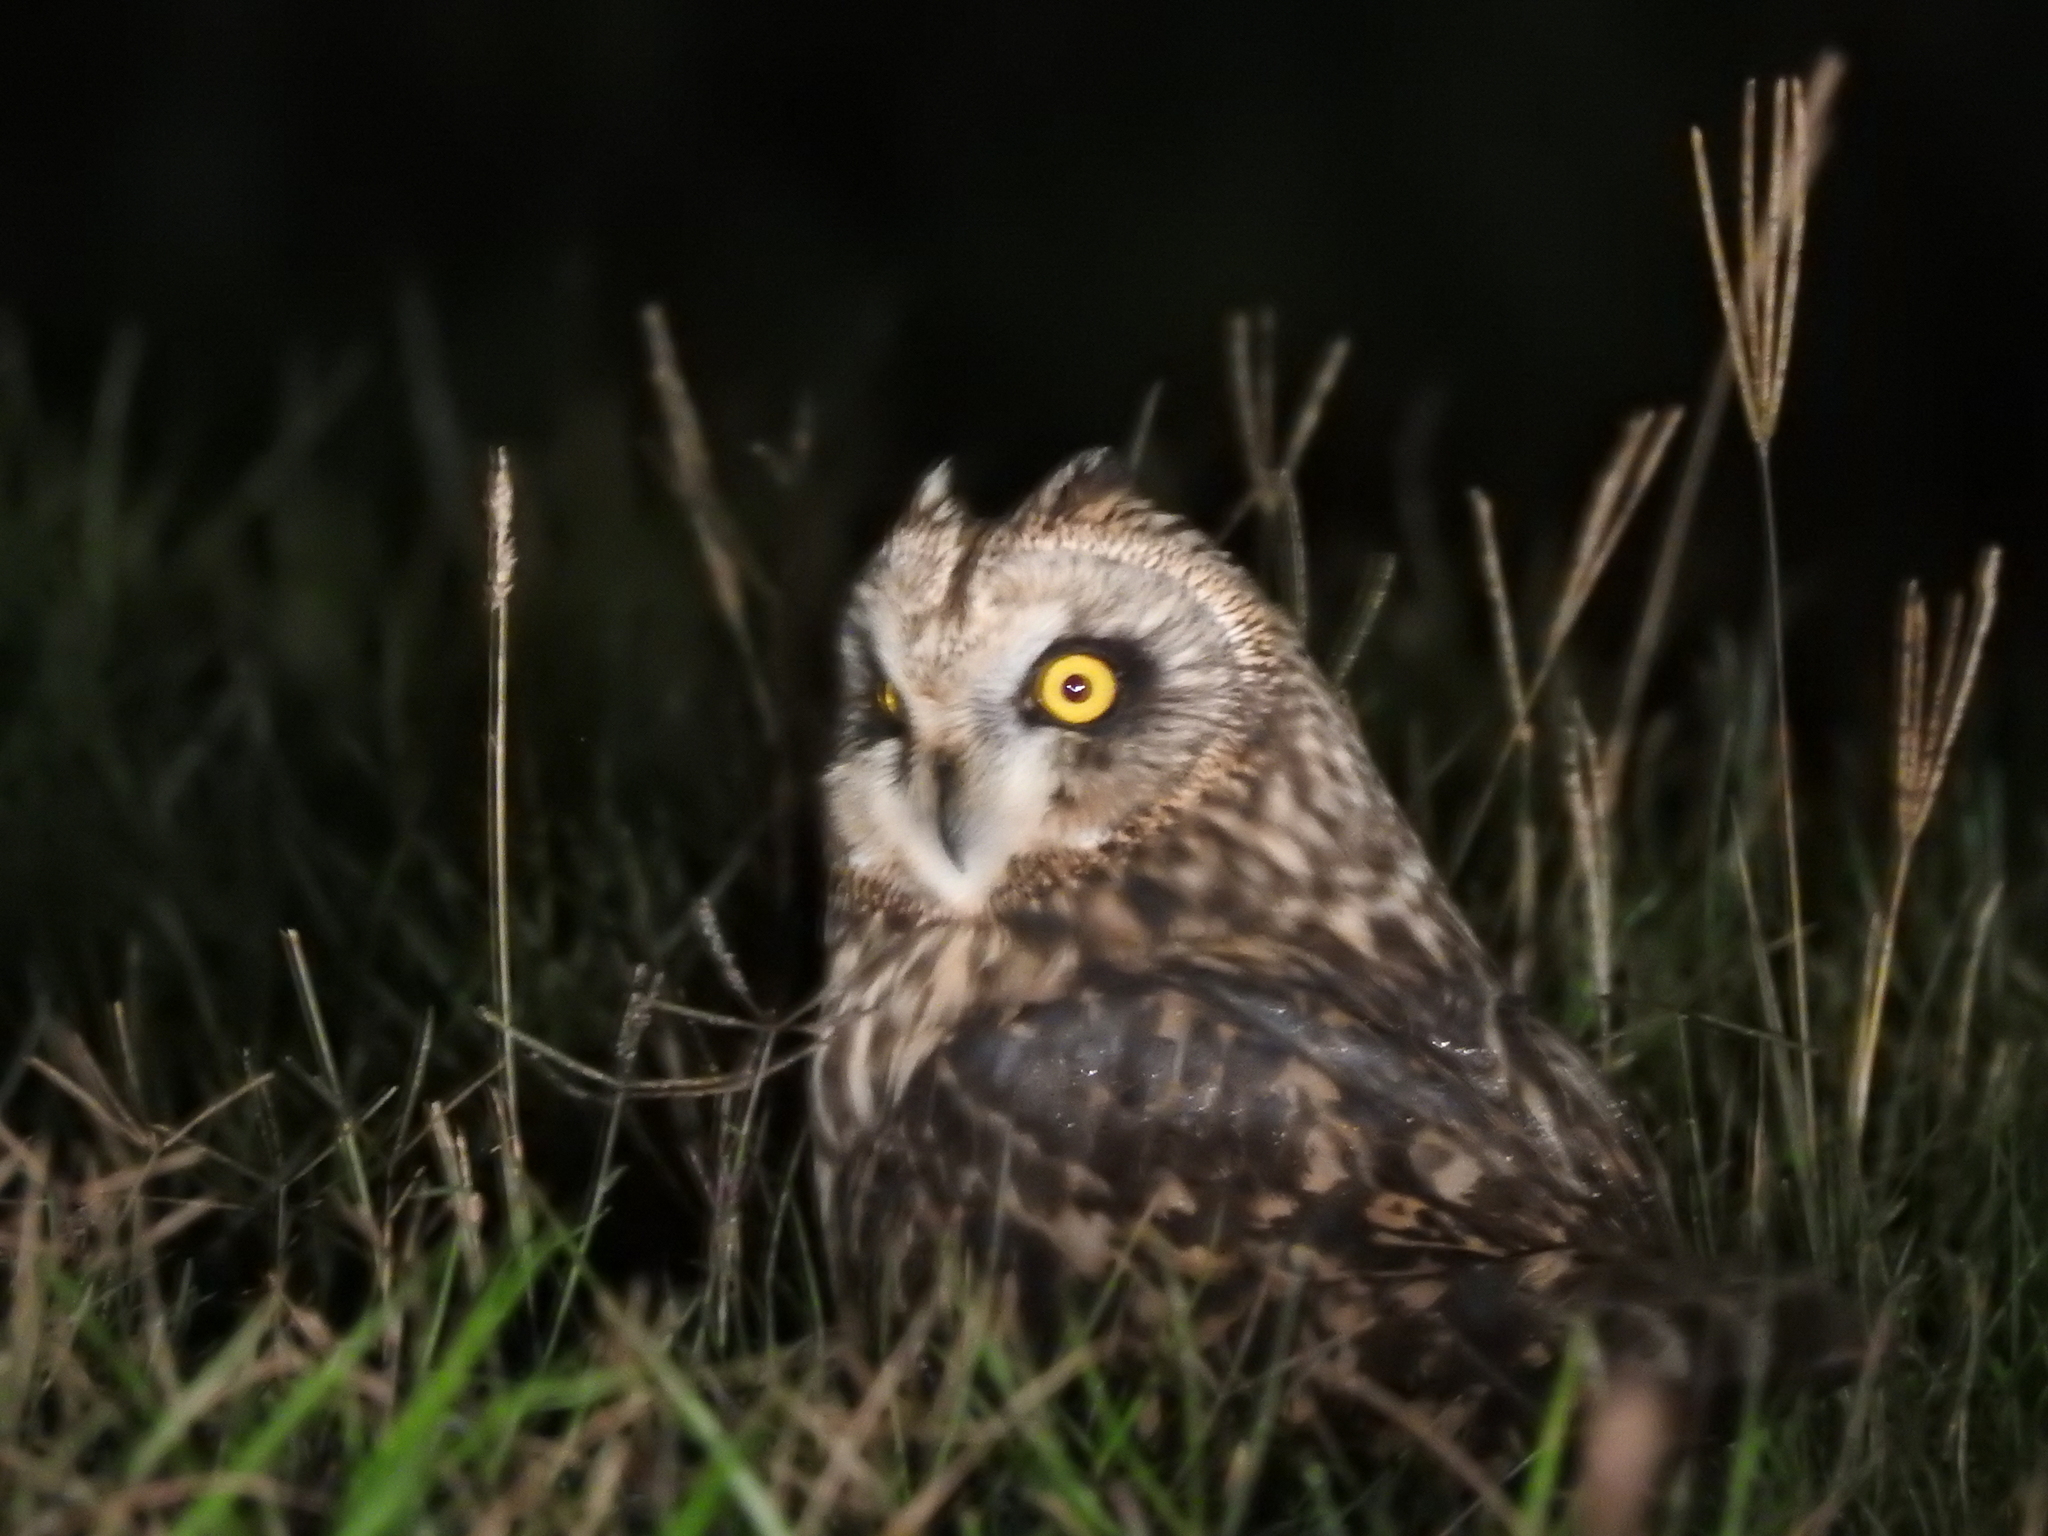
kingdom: Animalia
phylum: Chordata
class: Aves
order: Strigiformes
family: Strigidae
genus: Asio
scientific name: Asio flammeus
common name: Short-eared owl
